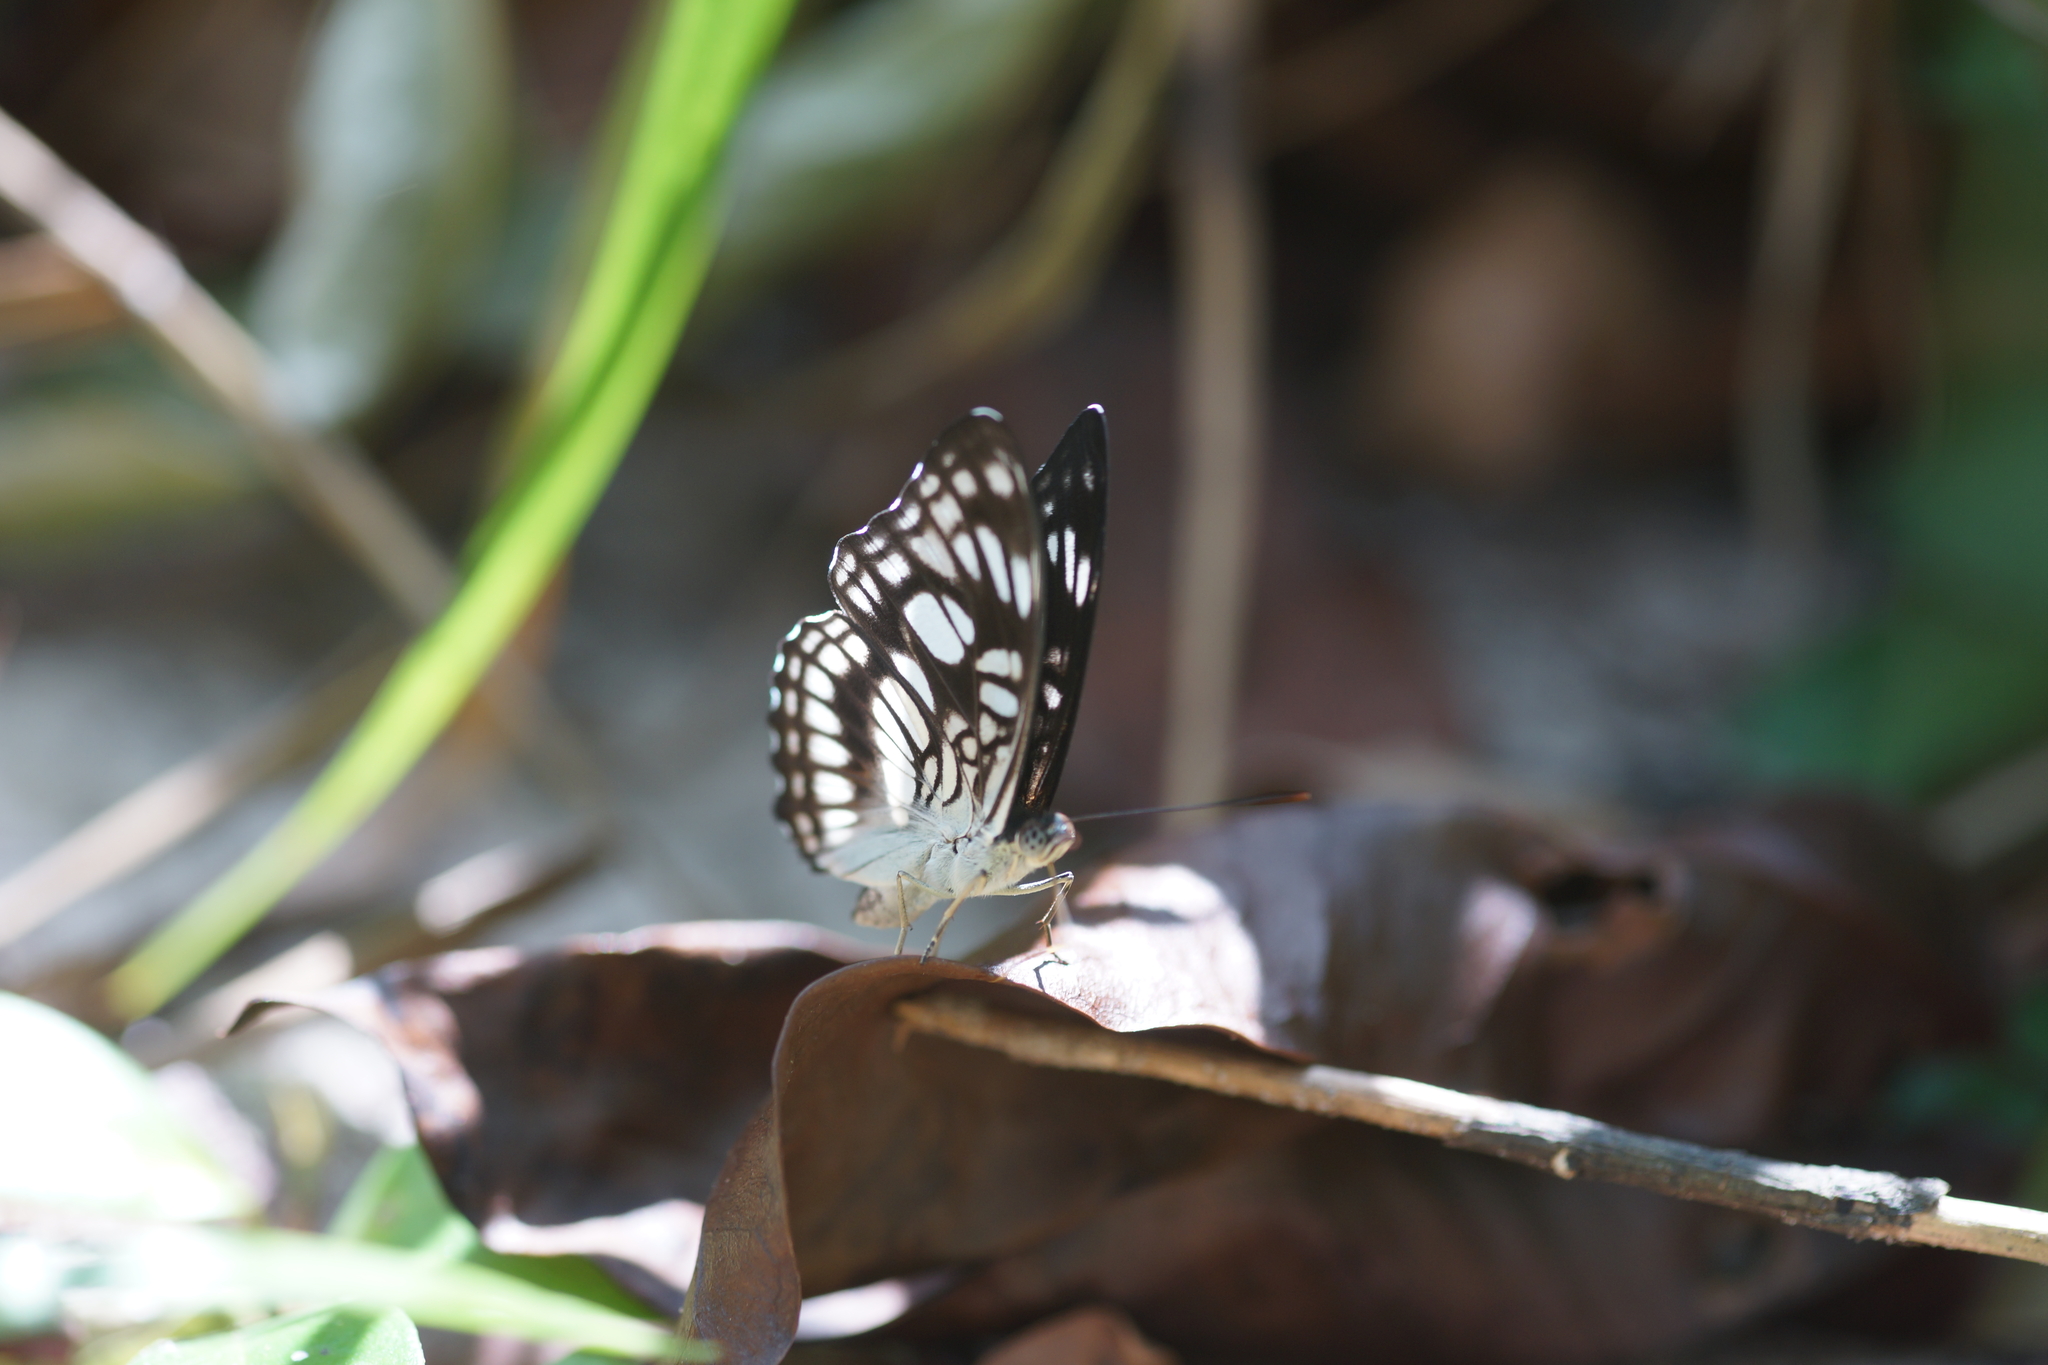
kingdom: Animalia
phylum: Arthropoda
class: Insecta
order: Lepidoptera
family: Nymphalidae
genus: Parathyma
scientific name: Parathyma ranga
